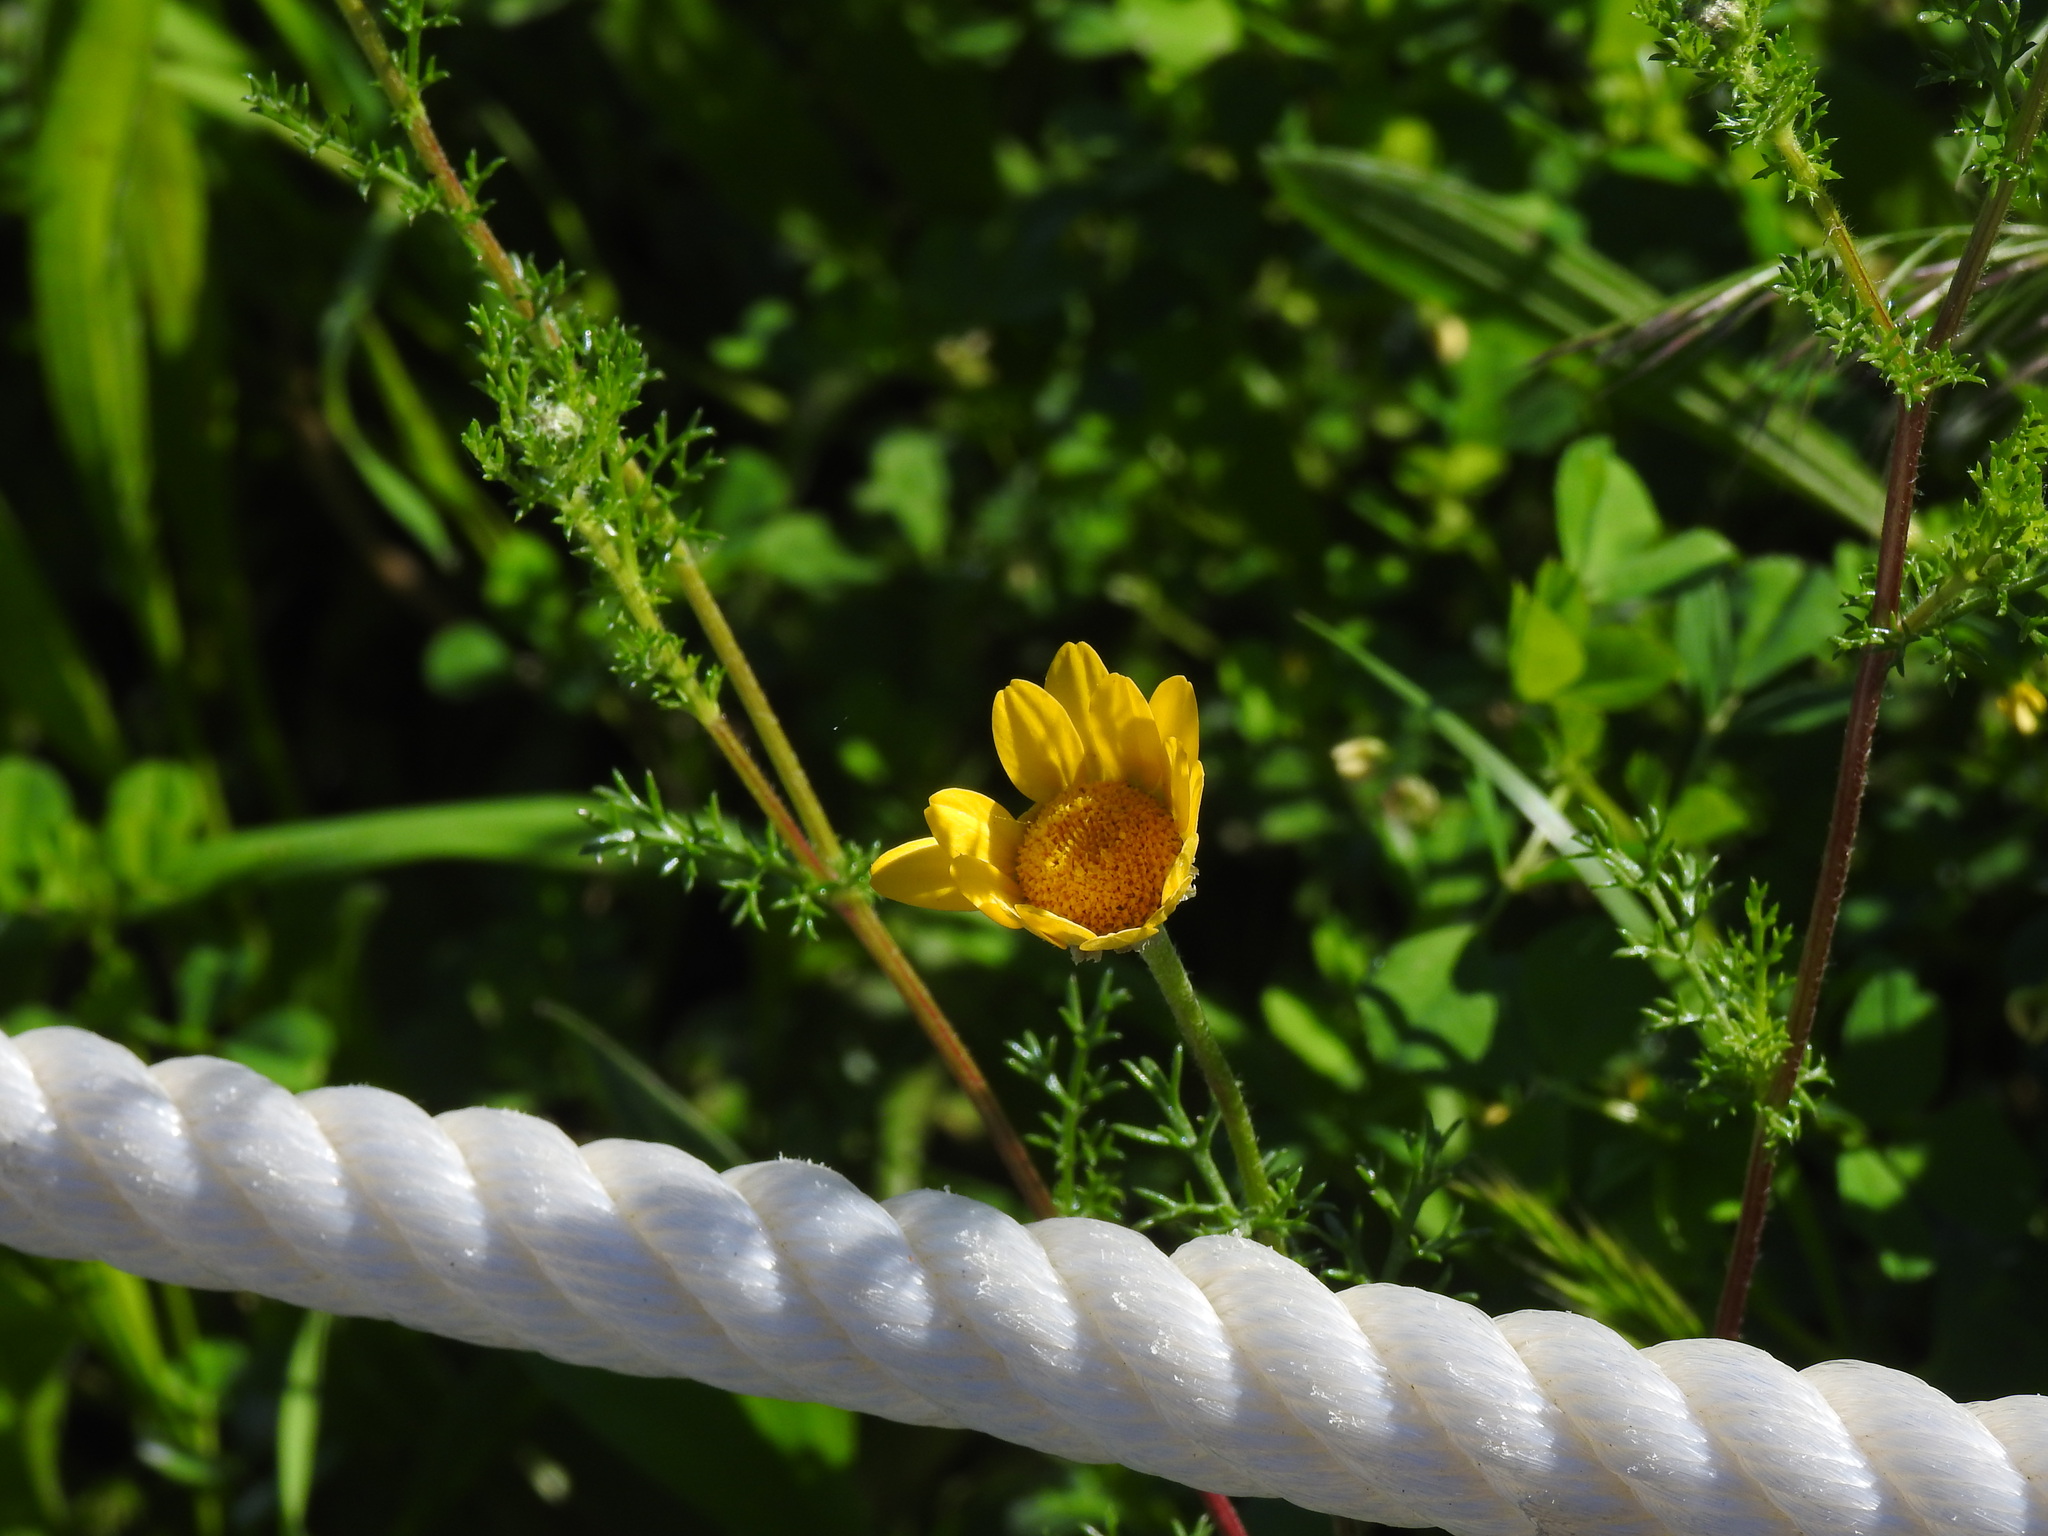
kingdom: Plantae
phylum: Tracheophyta
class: Magnoliopsida
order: Asterales
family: Asteraceae
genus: Anacyclus
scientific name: Anacyclus radiatus
